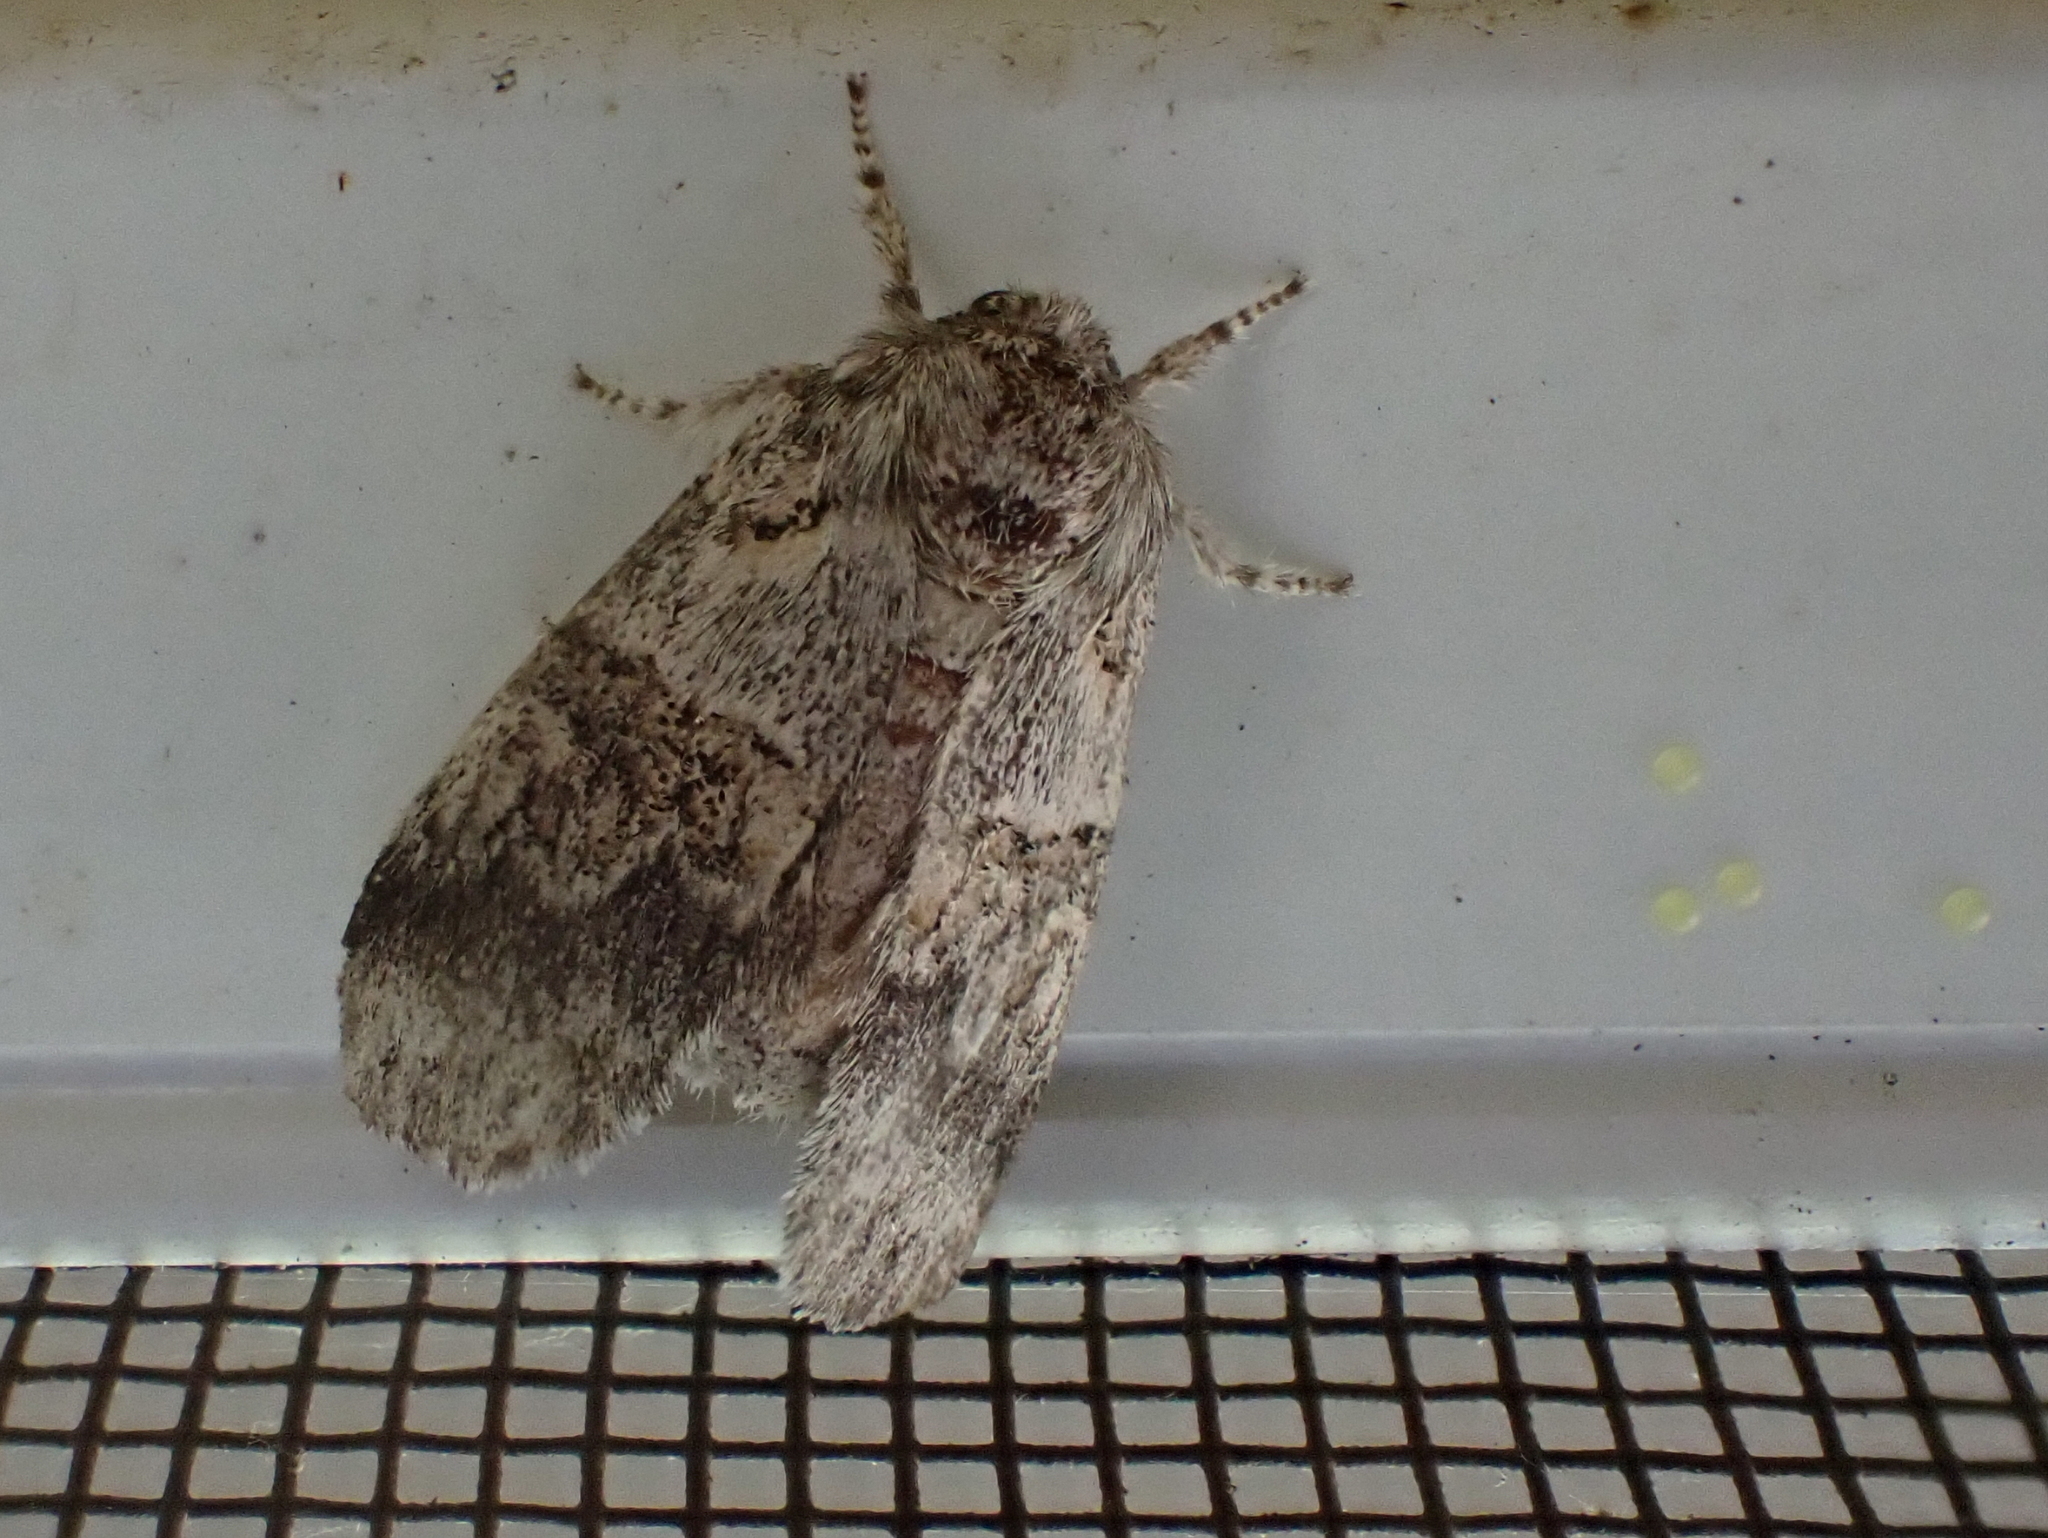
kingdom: Animalia
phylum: Arthropoda
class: Insecta
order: Lepidoptera
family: Notodontidae
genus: Gluphisia
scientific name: Gluphisia septentrionis
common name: Common gluphisia
